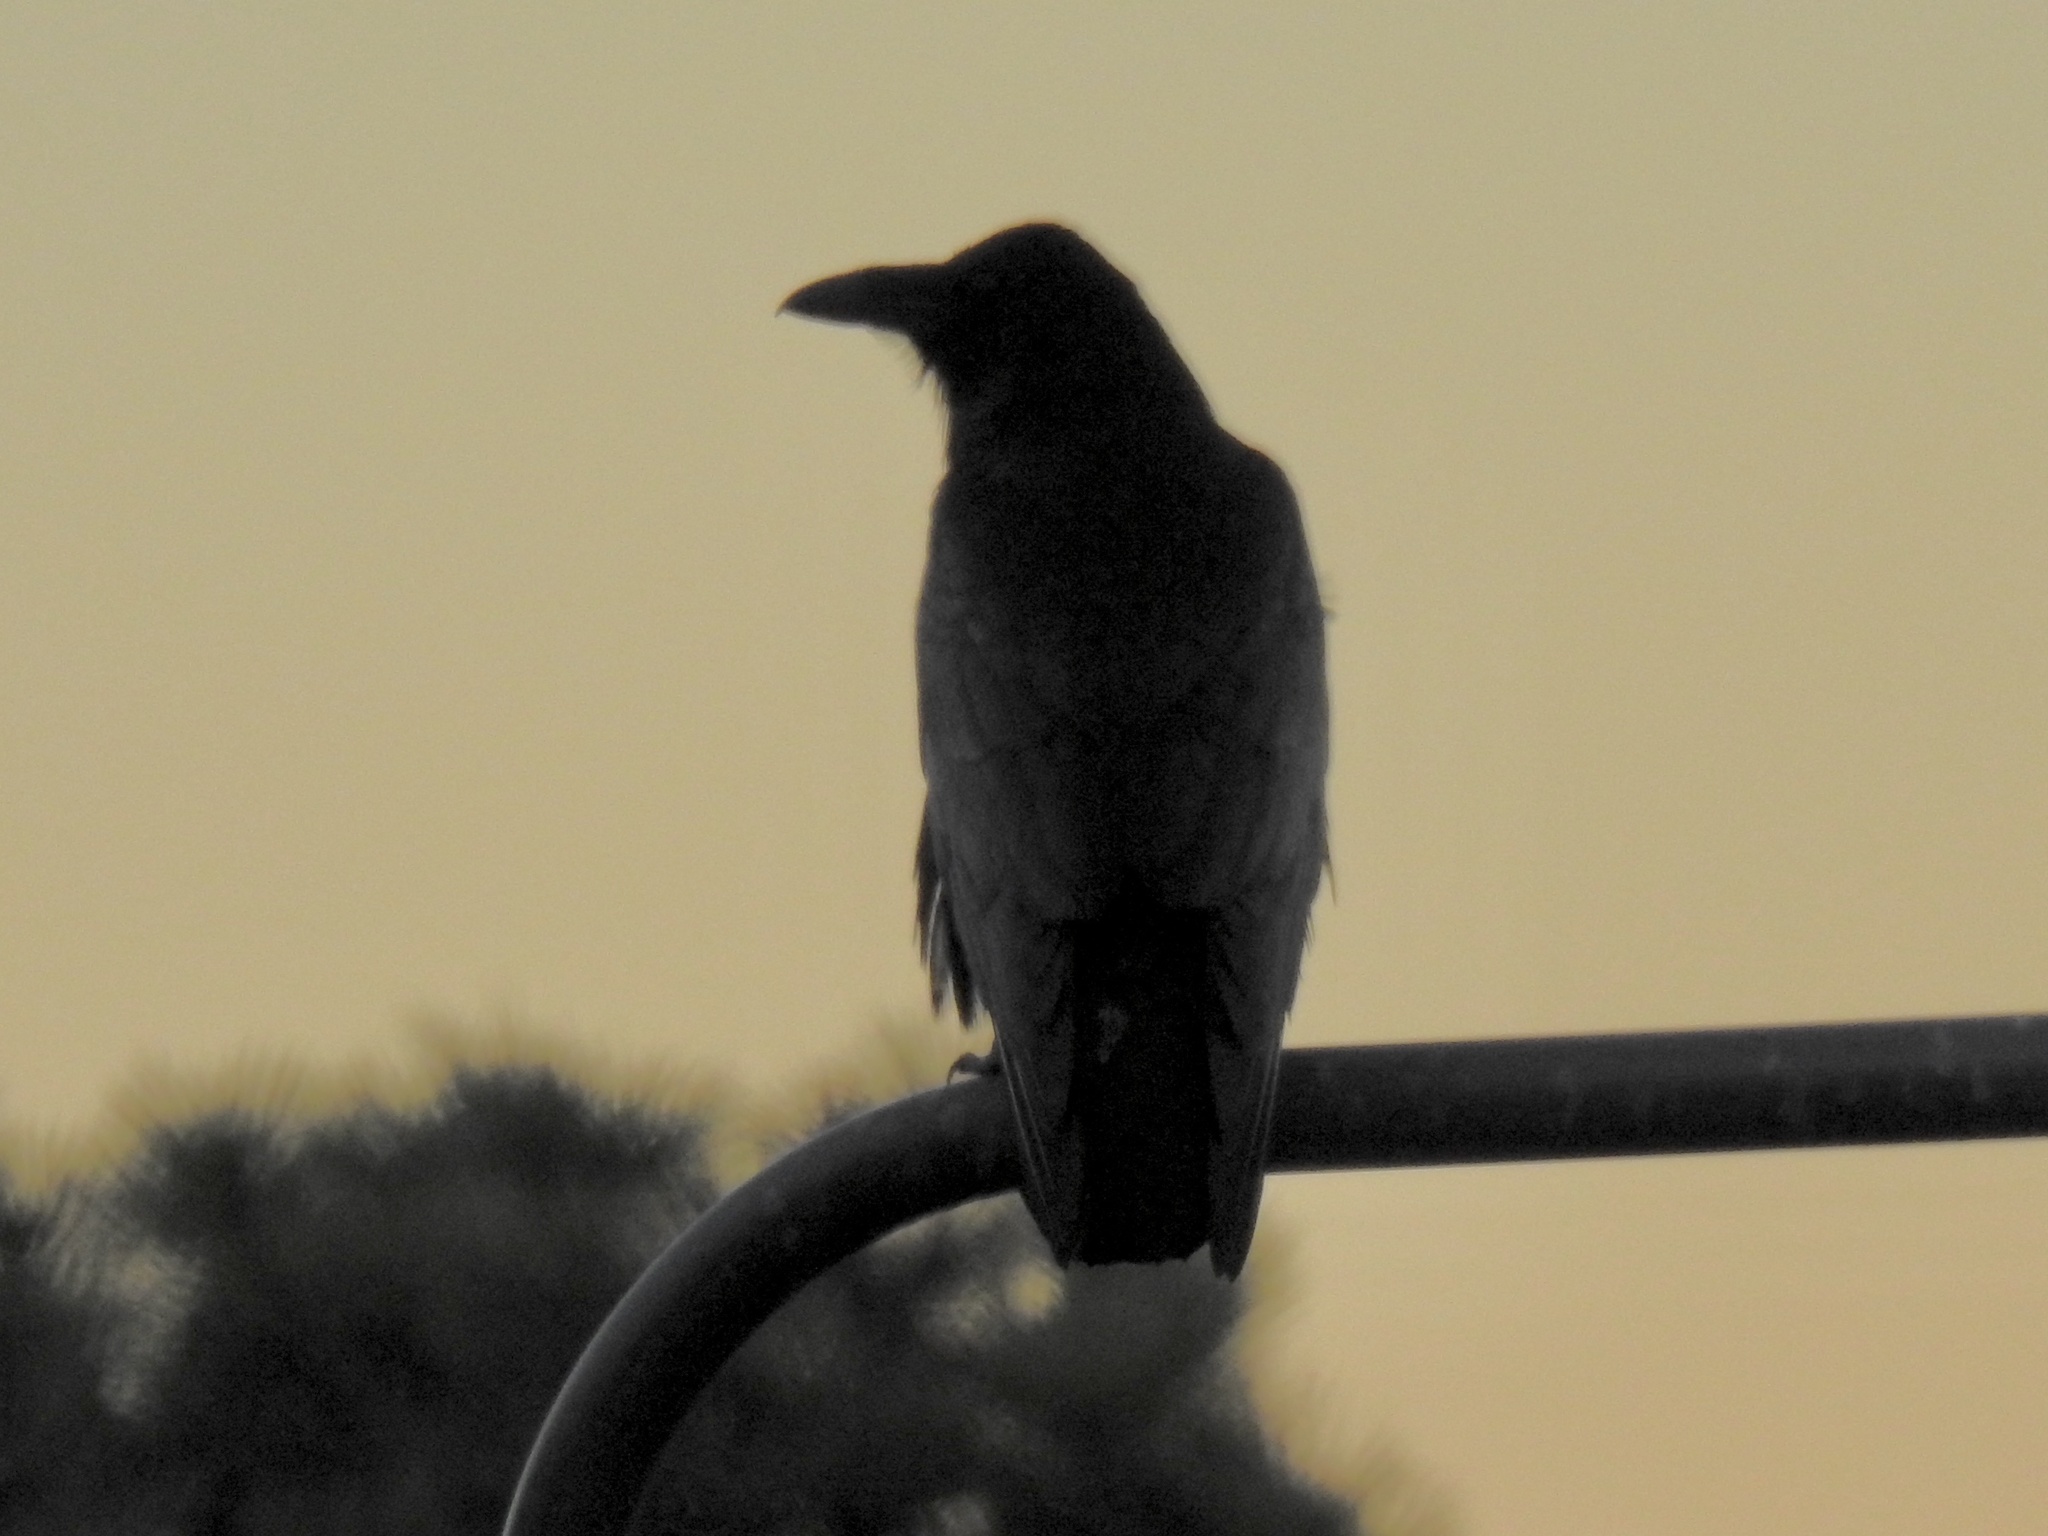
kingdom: Animalia
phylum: Chordata
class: Aves
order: Passeriformes
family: Corvidae
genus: Corvus
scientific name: Corvus corax
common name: Common raven
